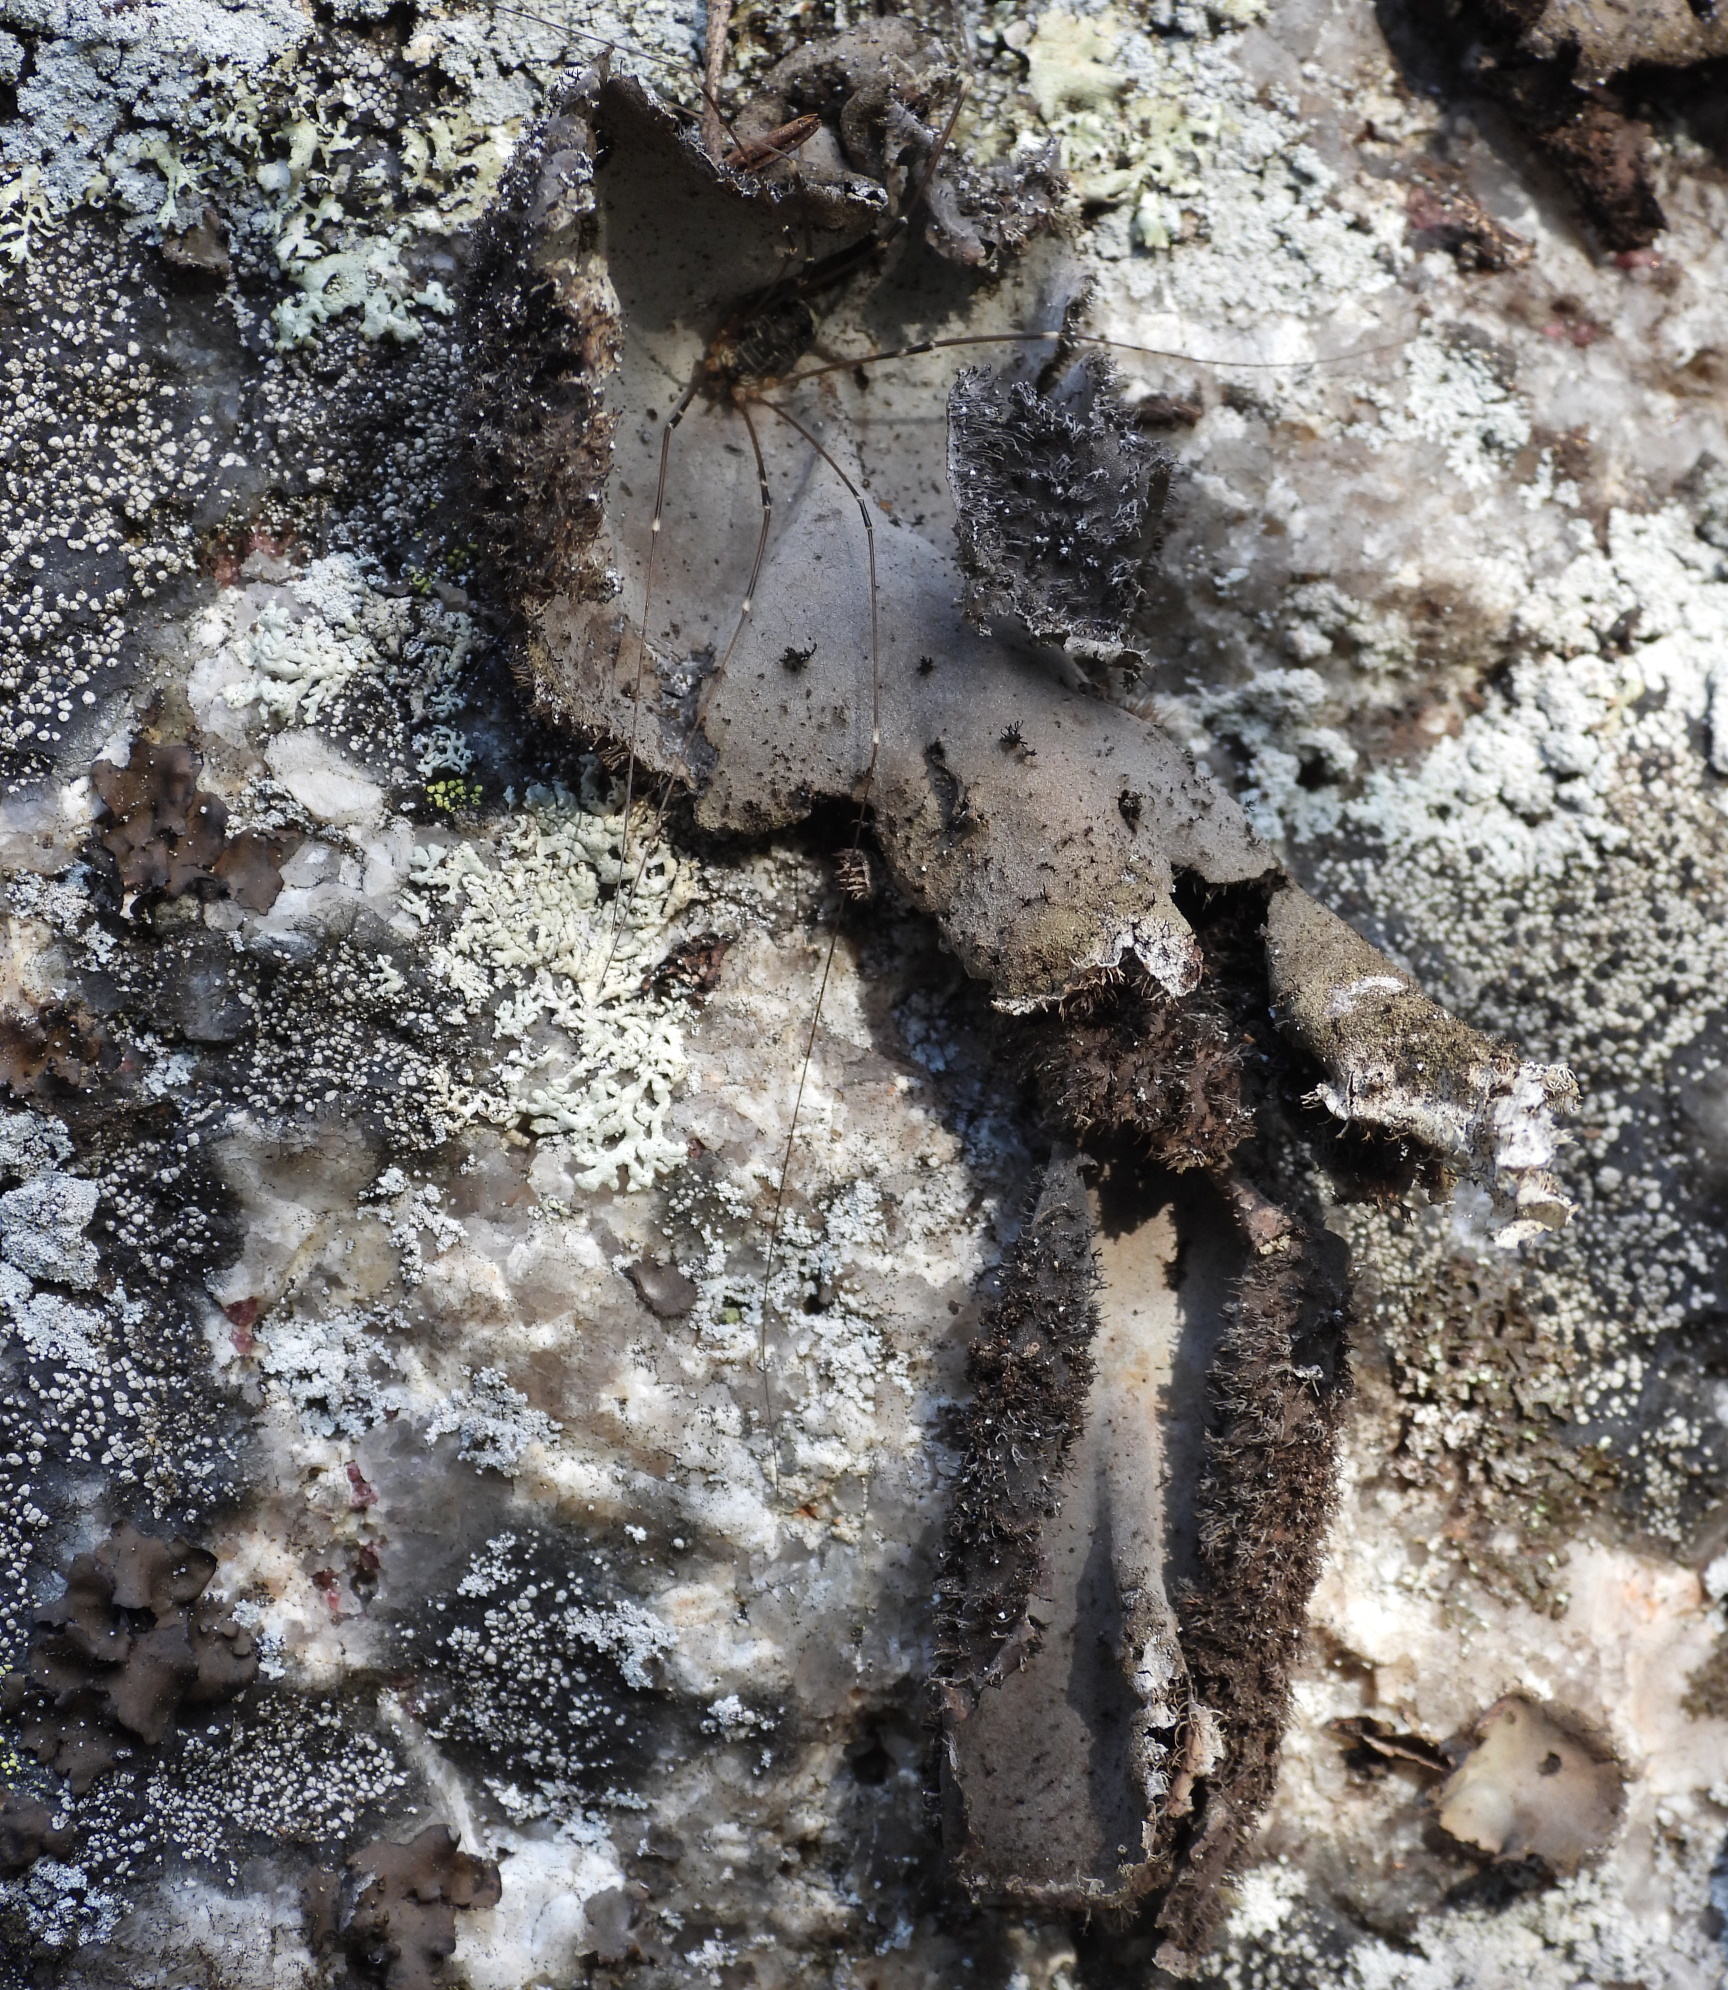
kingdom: Fungi
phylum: Ascomycota
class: Lecanoromycetes
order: Umbilicariales
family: Umbilicariaceae
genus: Umbilicaria
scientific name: Umbilicaria hirsuta
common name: Granulating rocktripe lichen
